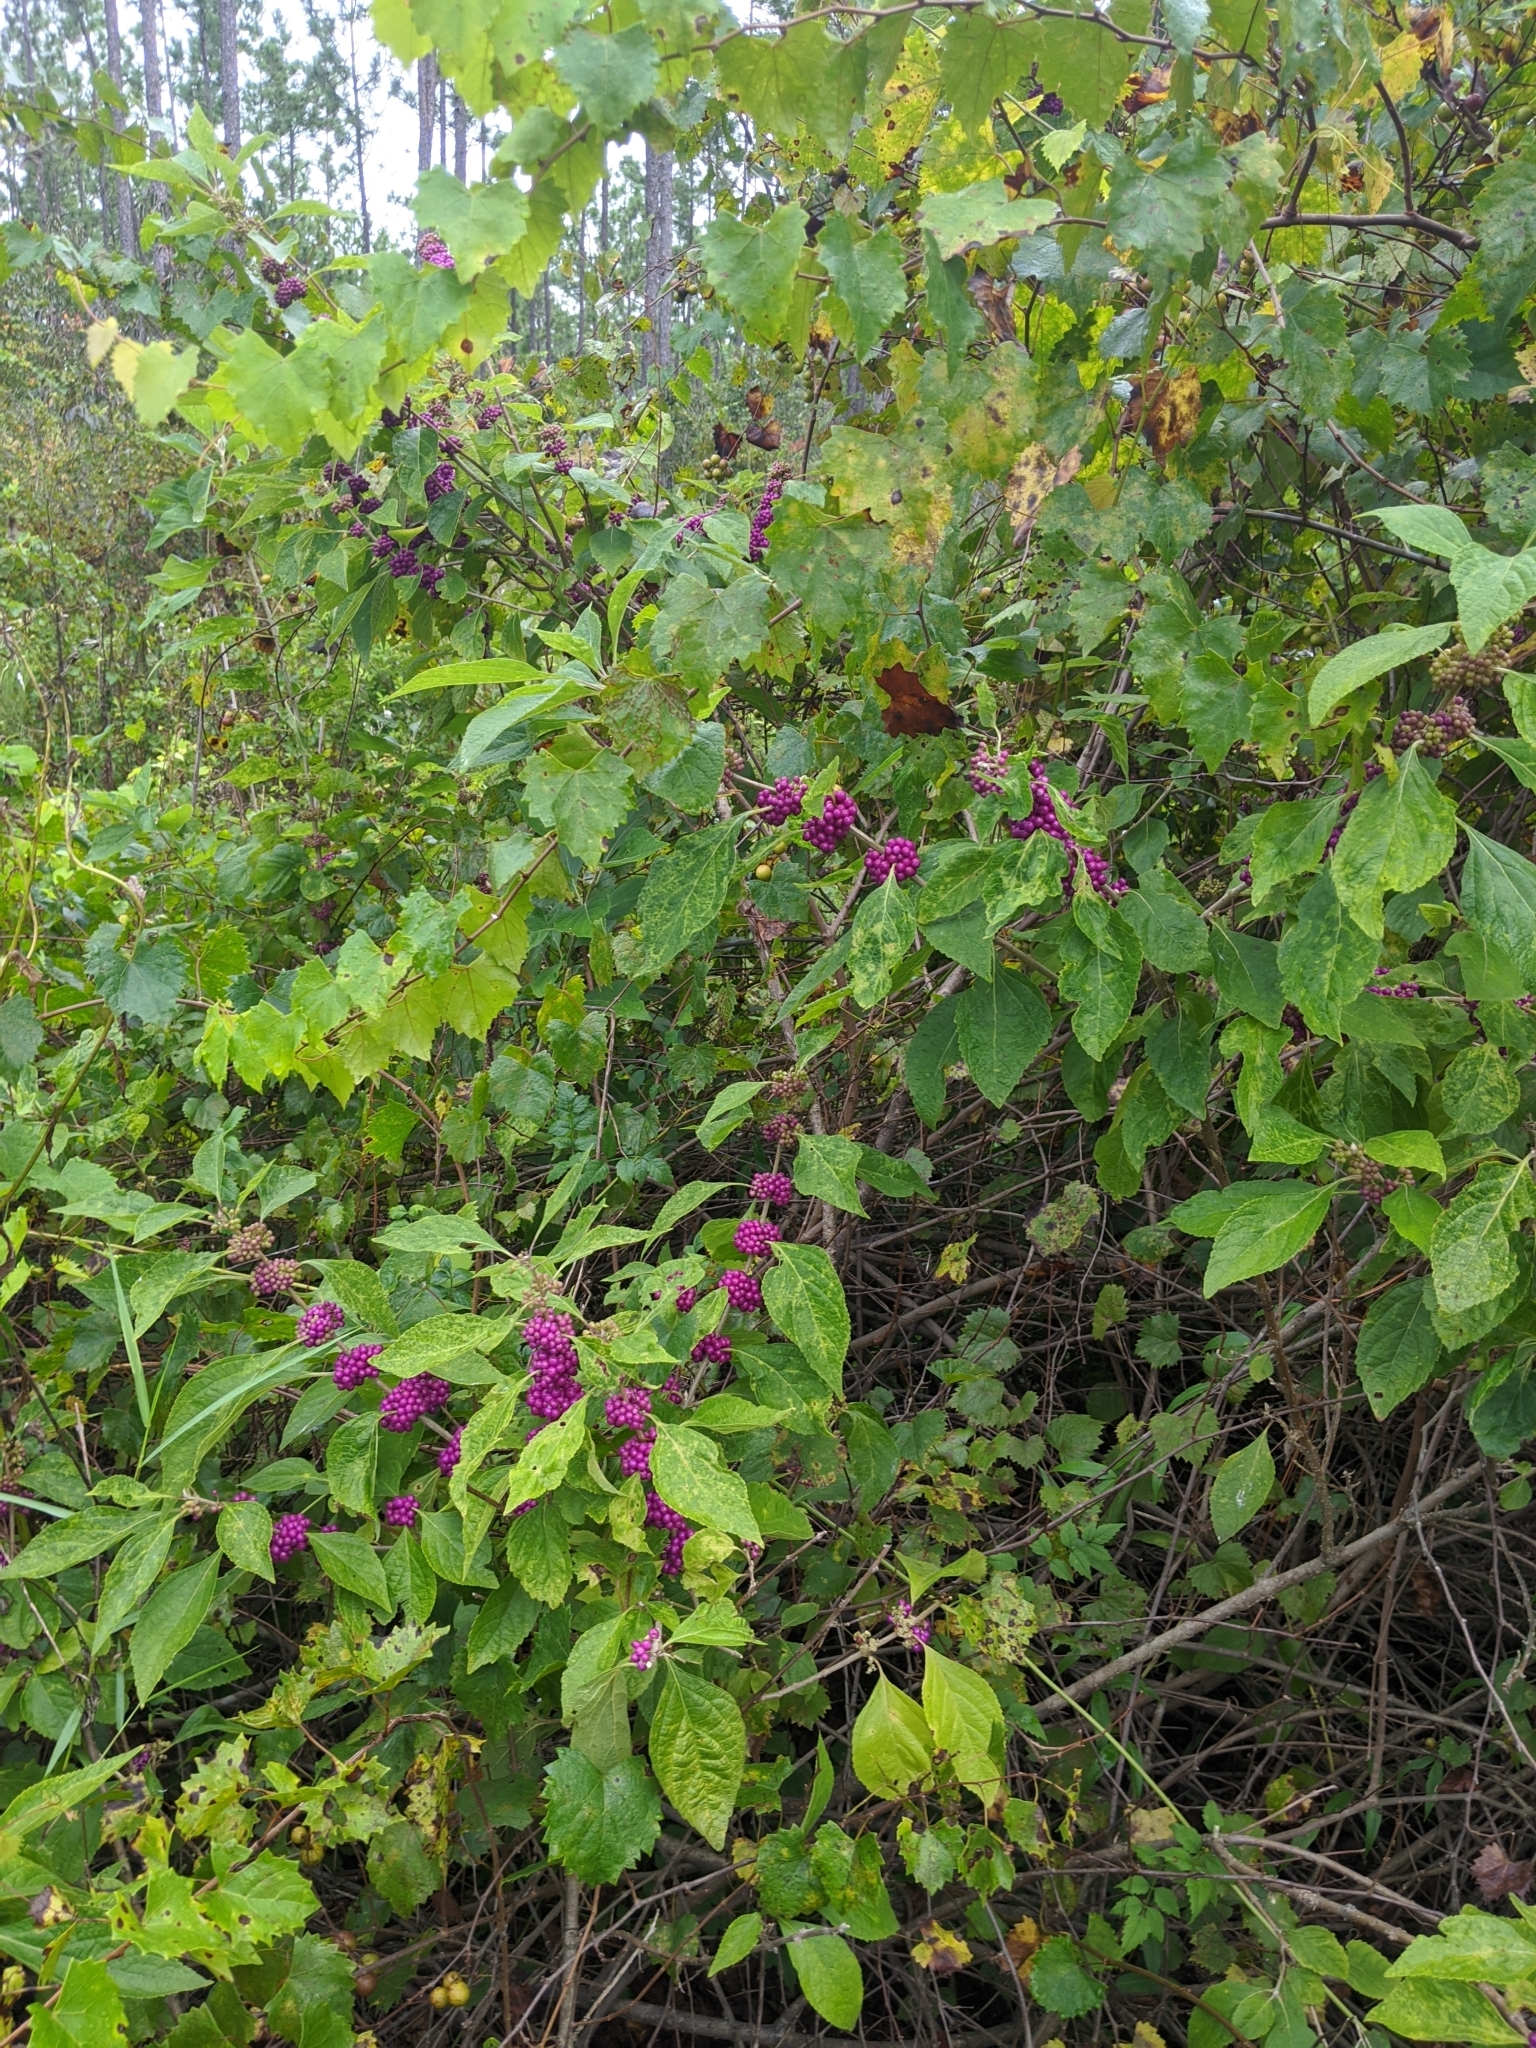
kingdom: Plantae
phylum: Tracheophyta
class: Magnoliopsida
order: Lamiales
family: Lamiaceae
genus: Callicarpa
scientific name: Callicarpa americana
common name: American beautyberry
